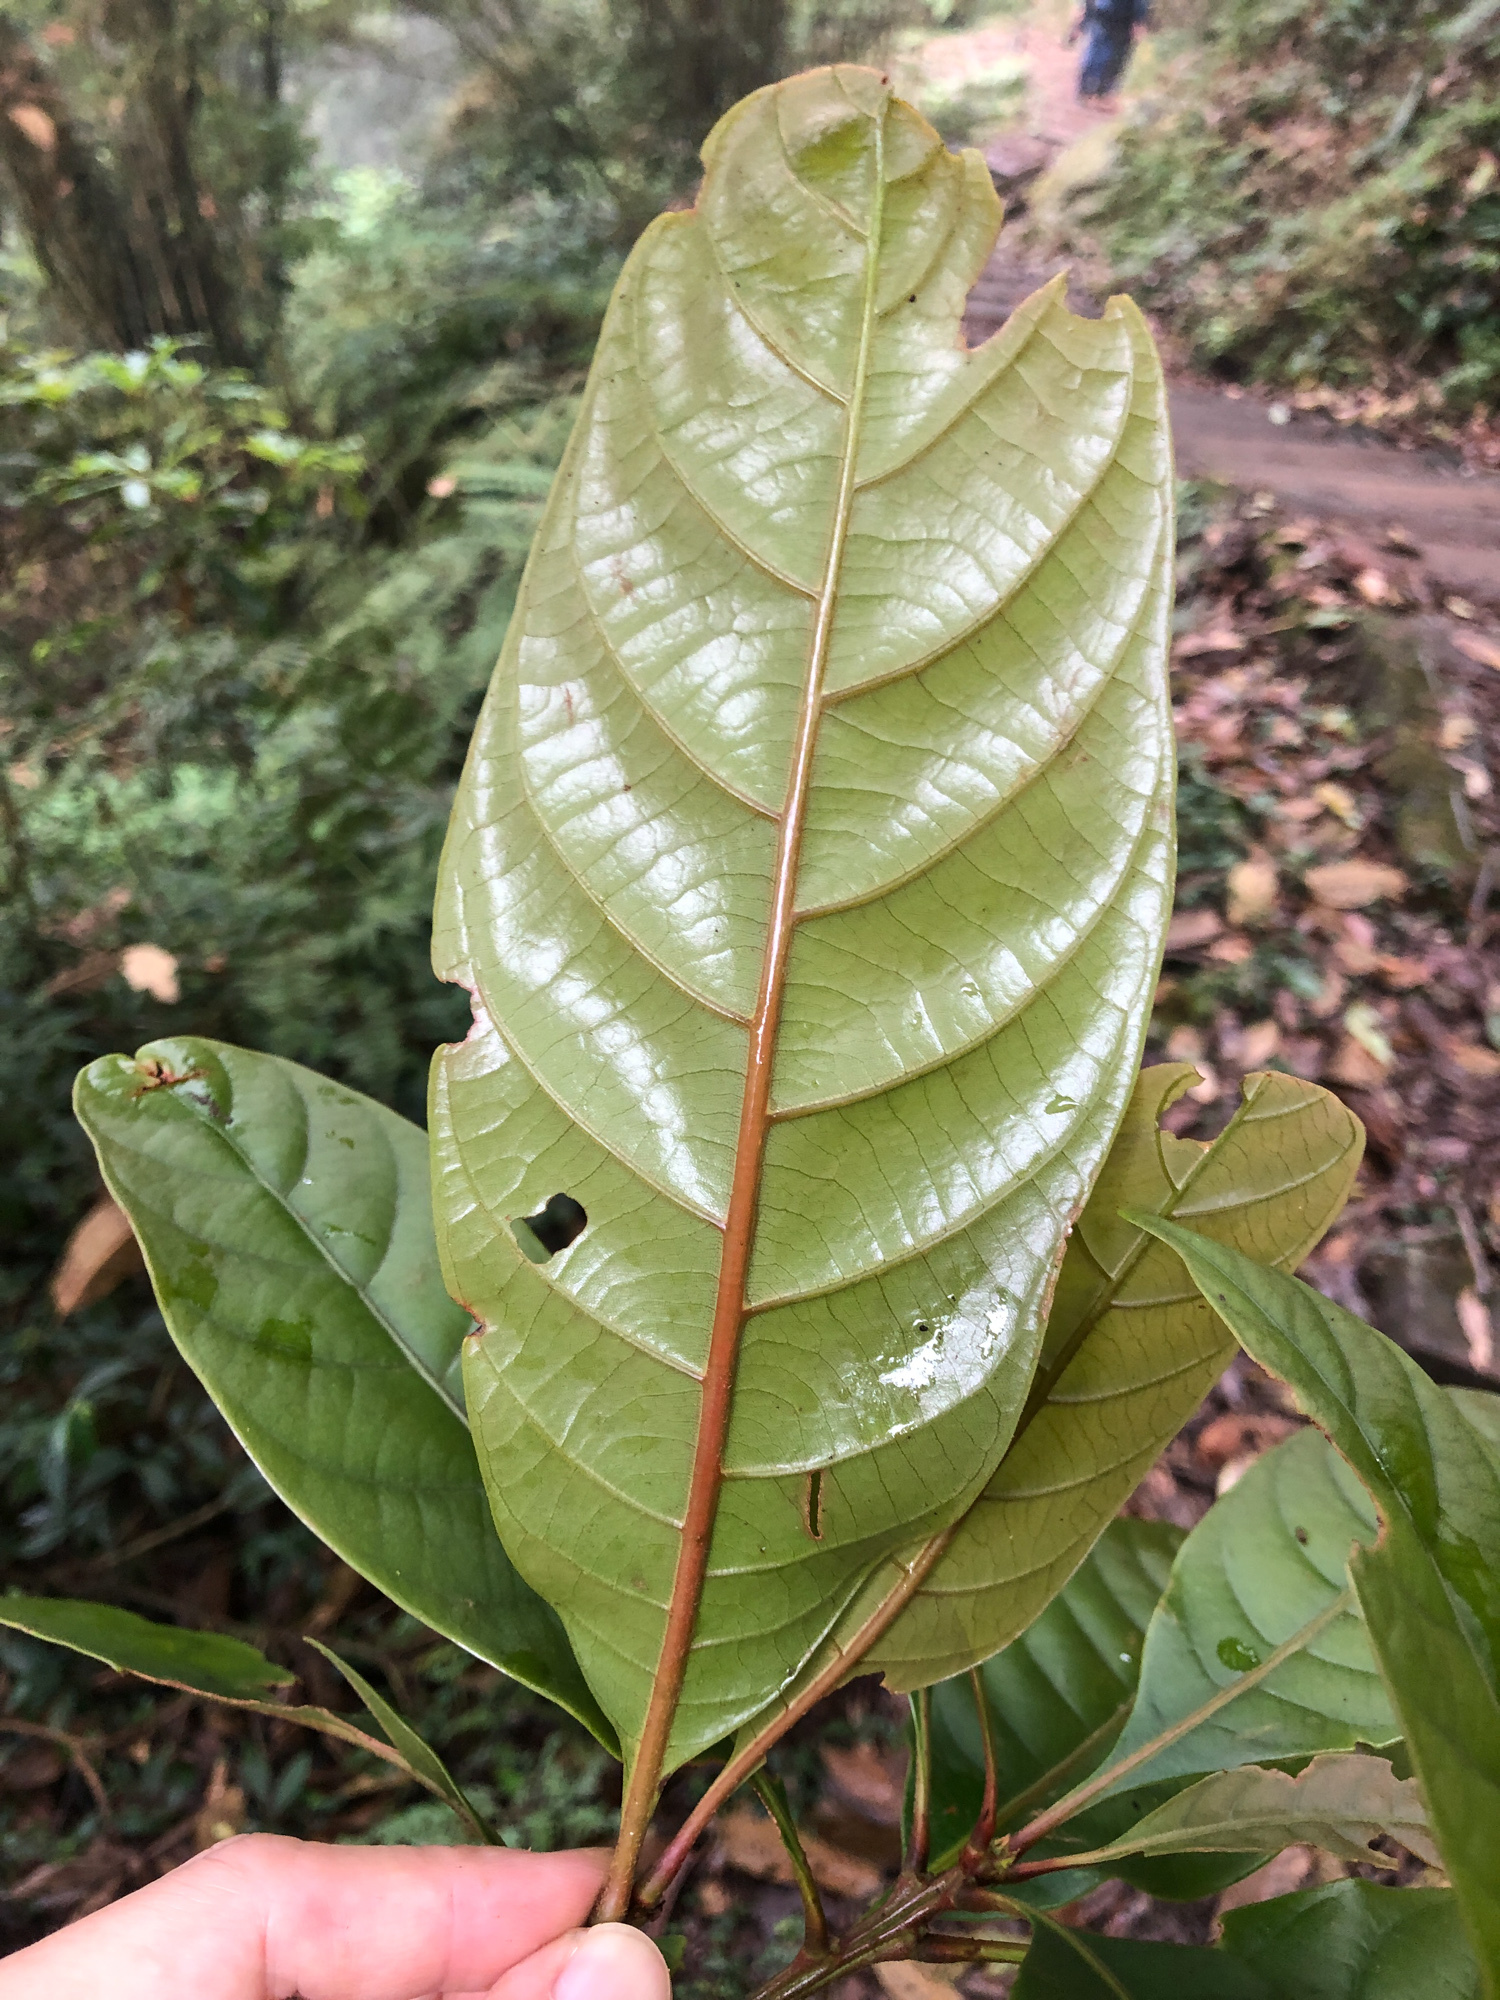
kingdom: Plantae
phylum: Tracheophyta
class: Magnoliopsida
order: Fagales
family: Fagaceae
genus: Lithocarpus
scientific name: Lithocarpus kawakamii
